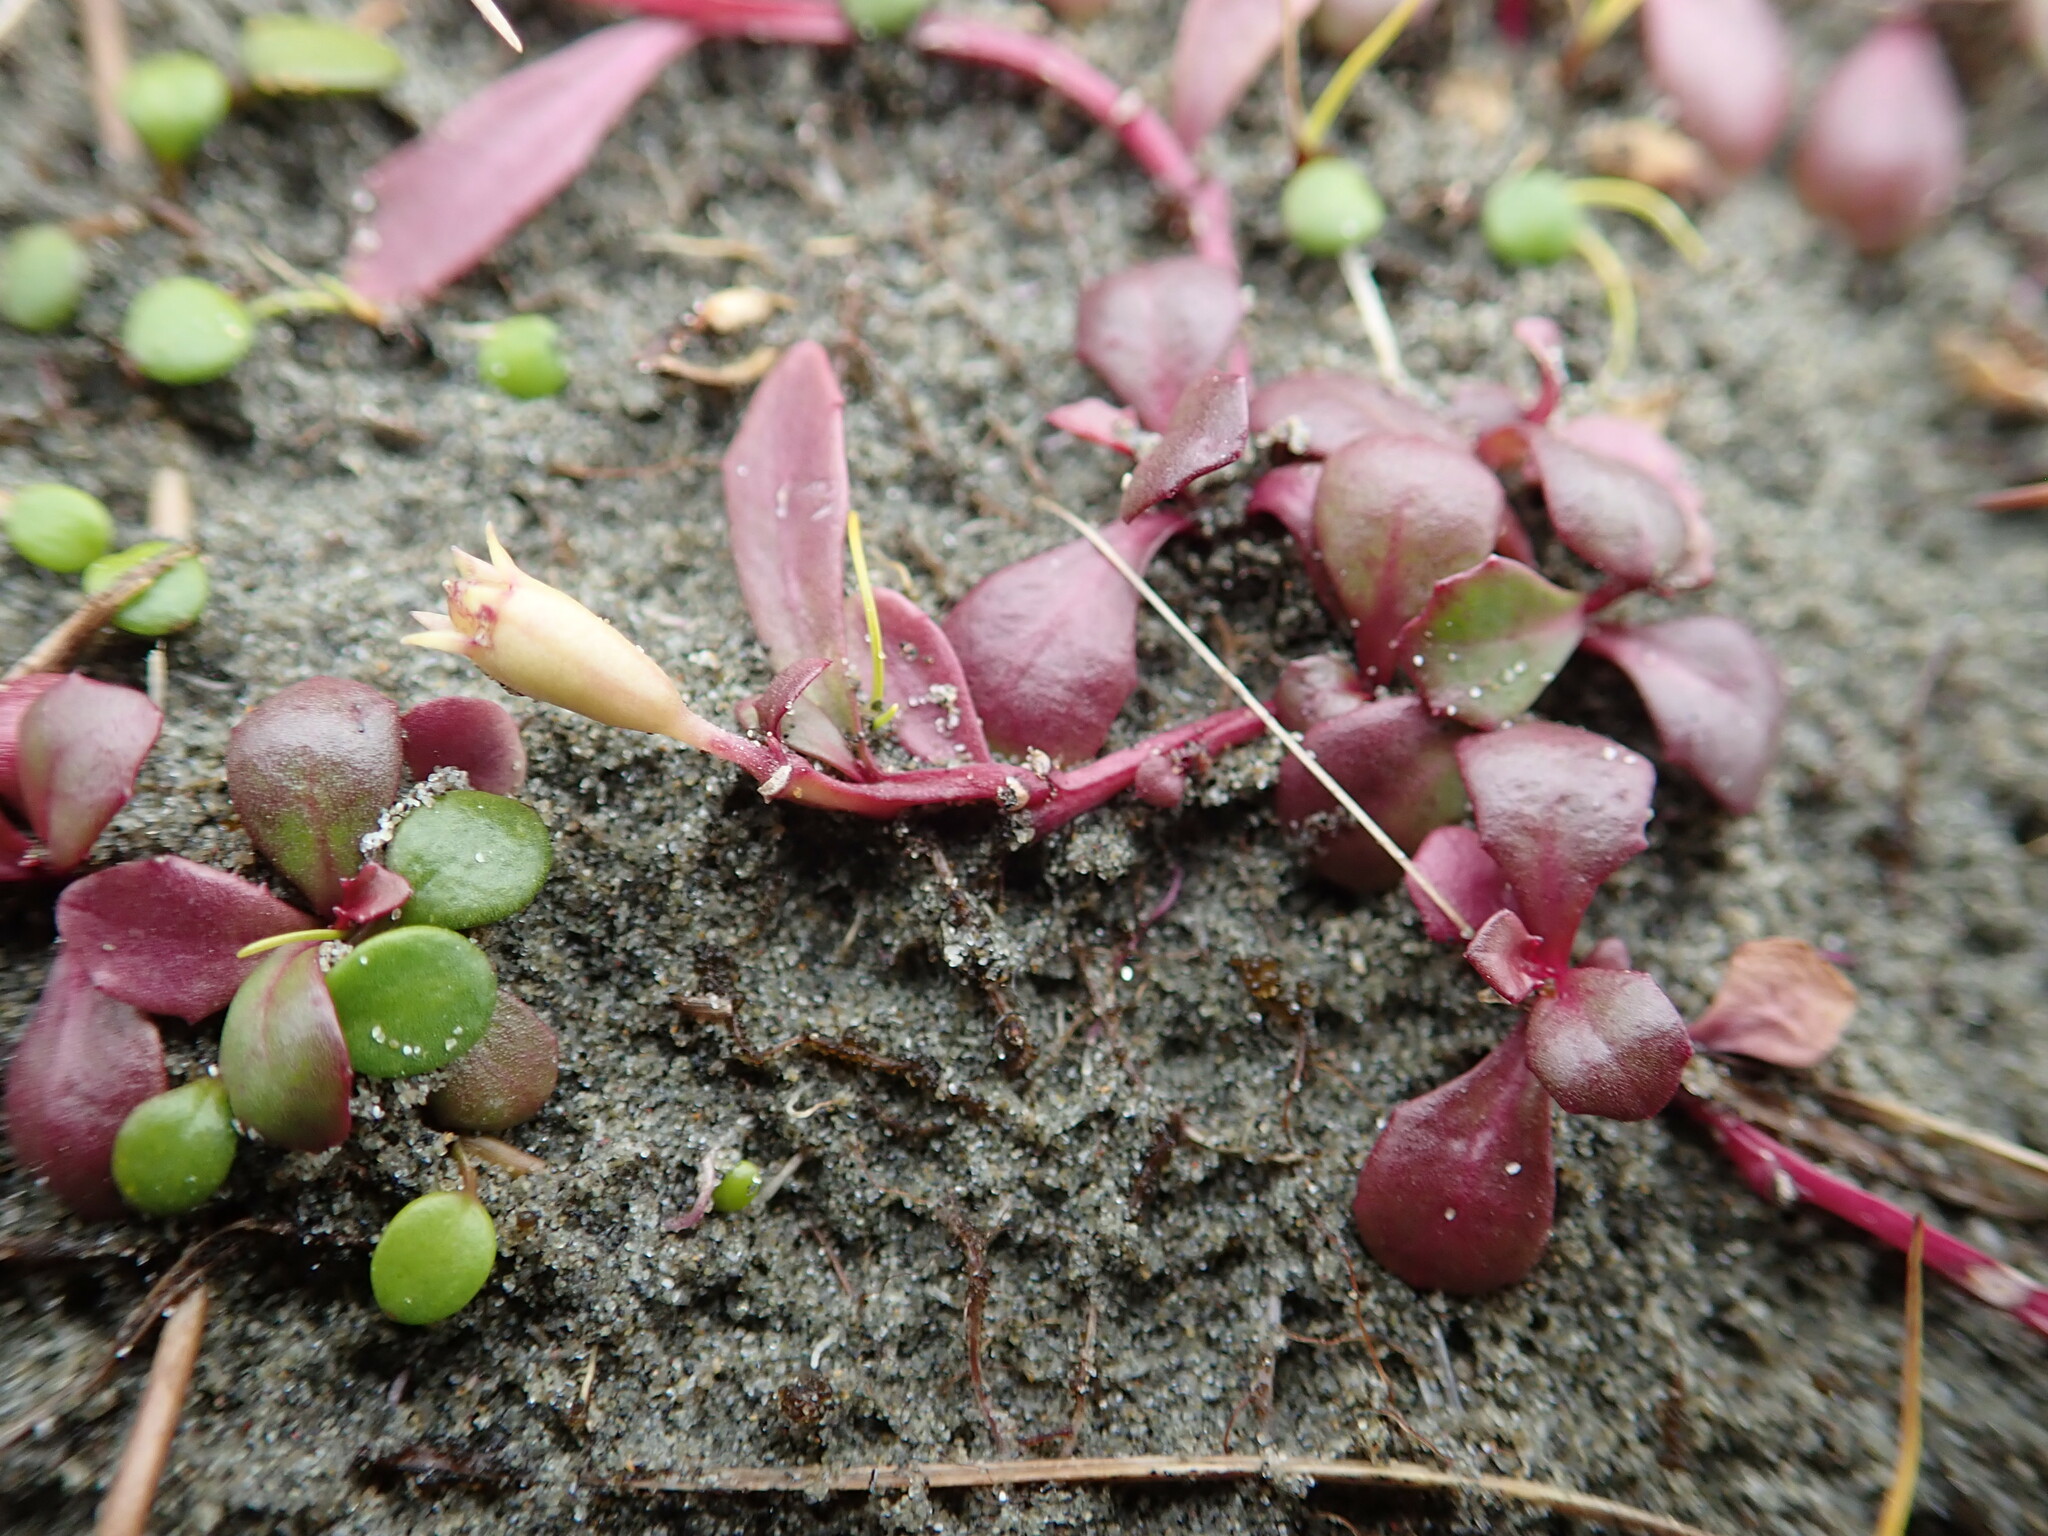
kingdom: Plantae
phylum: Tracheophyta
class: Magnoliopsida
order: Asterales
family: Campanulaceae
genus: Lobelia
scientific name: Lobelia anceps
